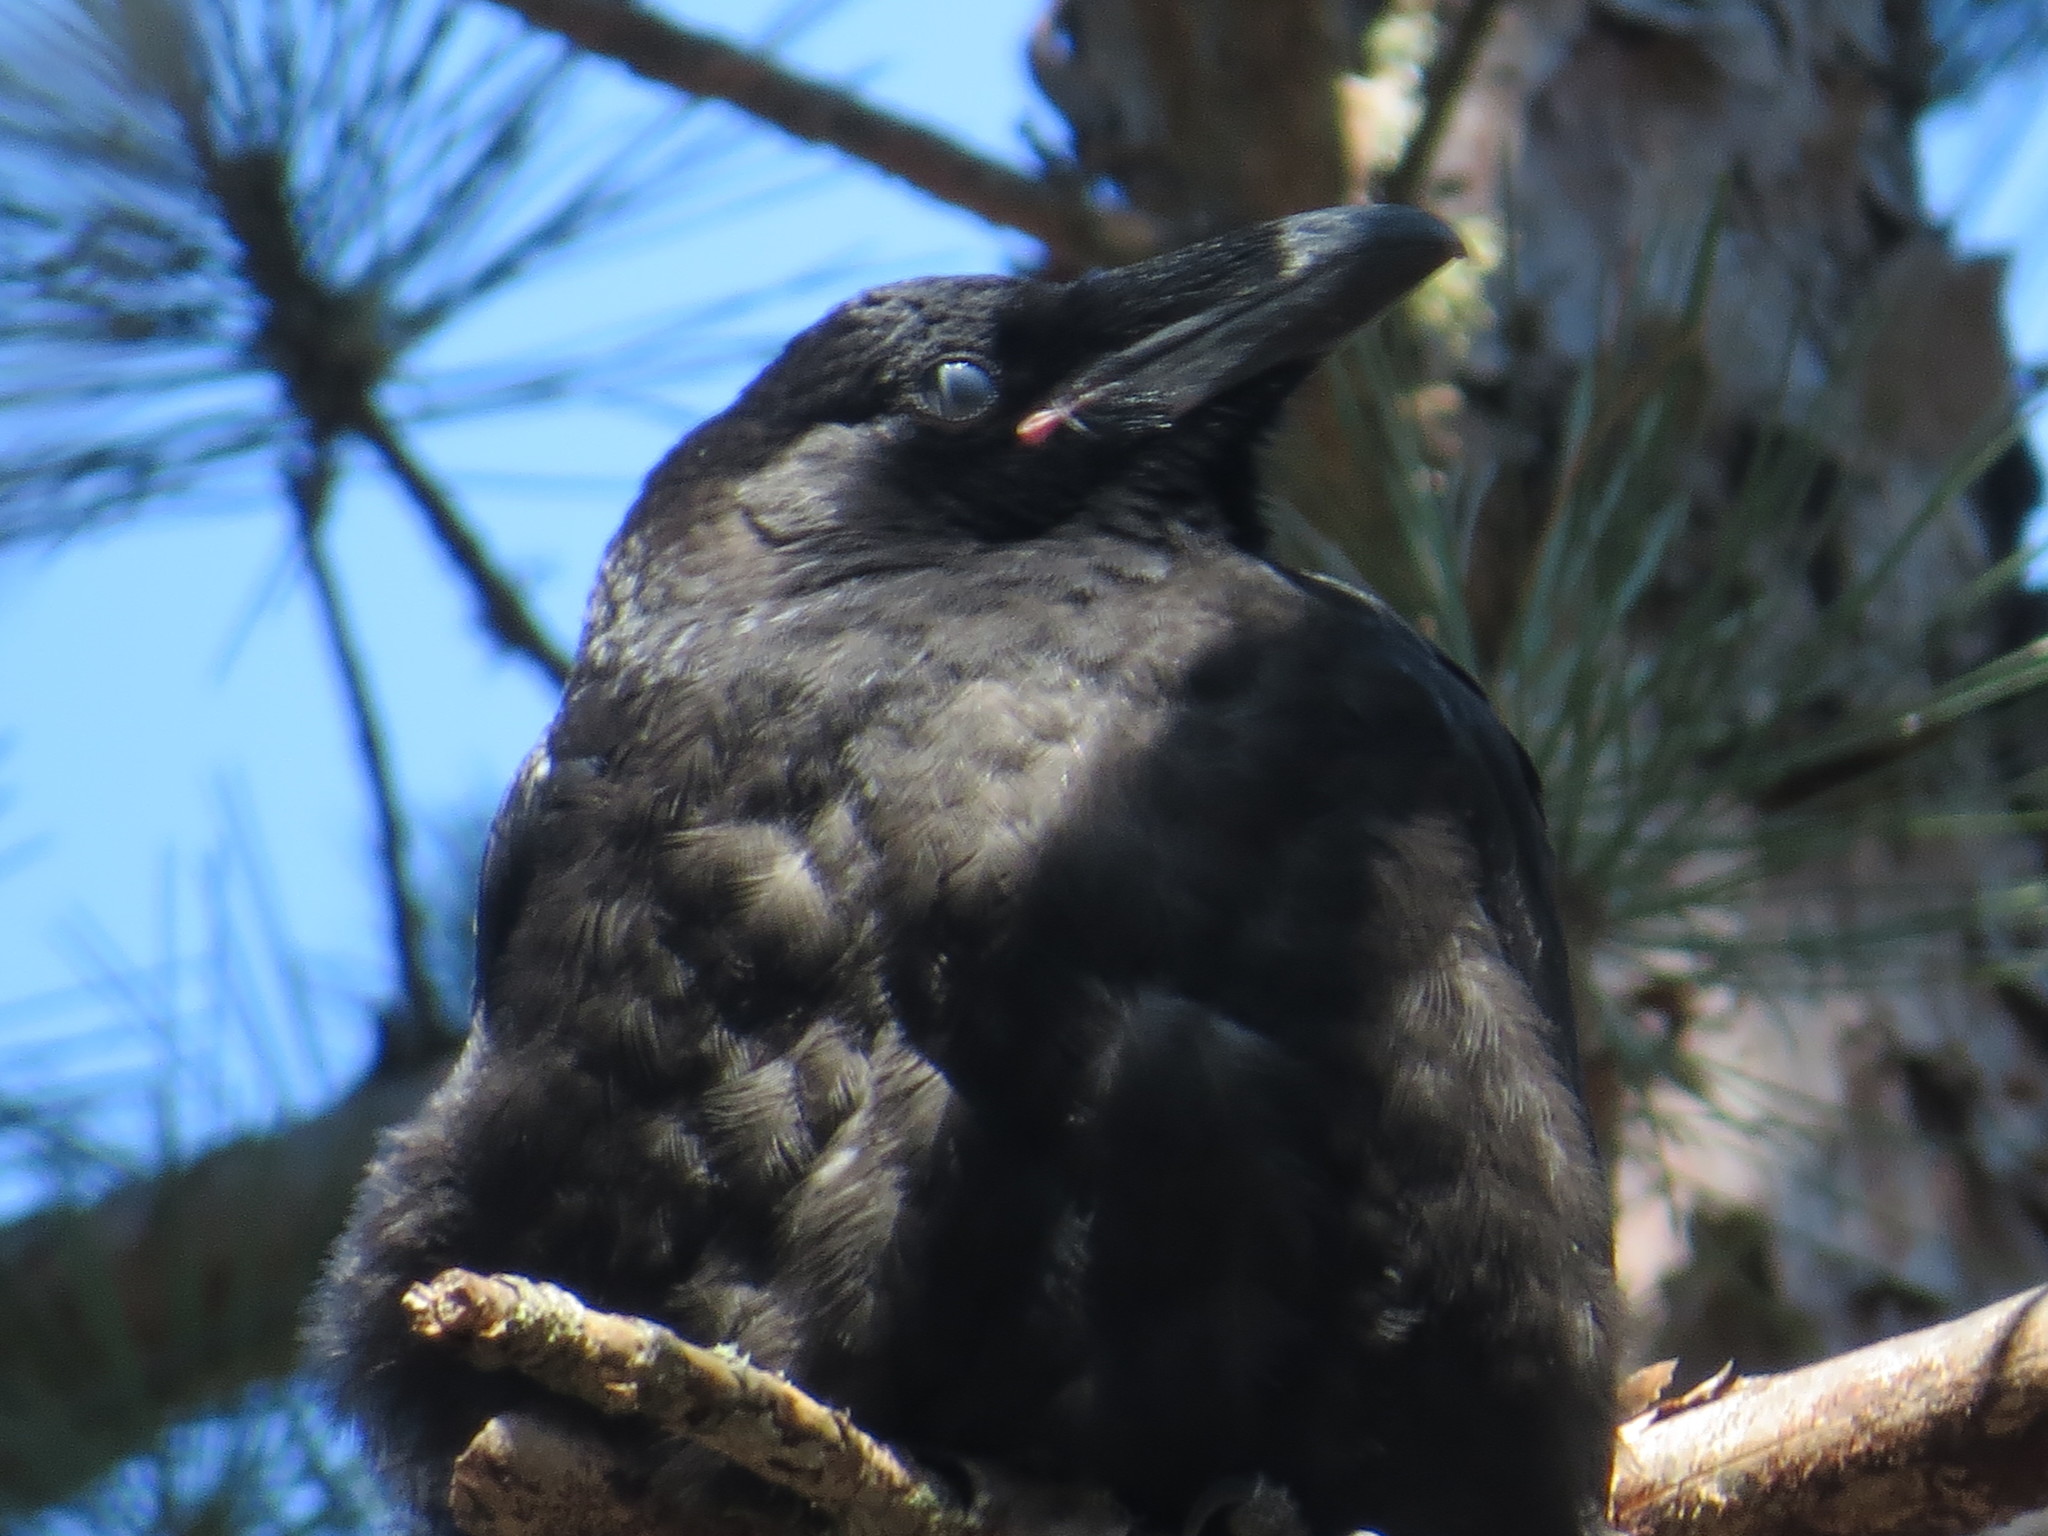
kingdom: Animalia
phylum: Chordata
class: Aves
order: Passeriformes
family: Corvidae
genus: Corvus
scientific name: Corvus corax
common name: Common raven
